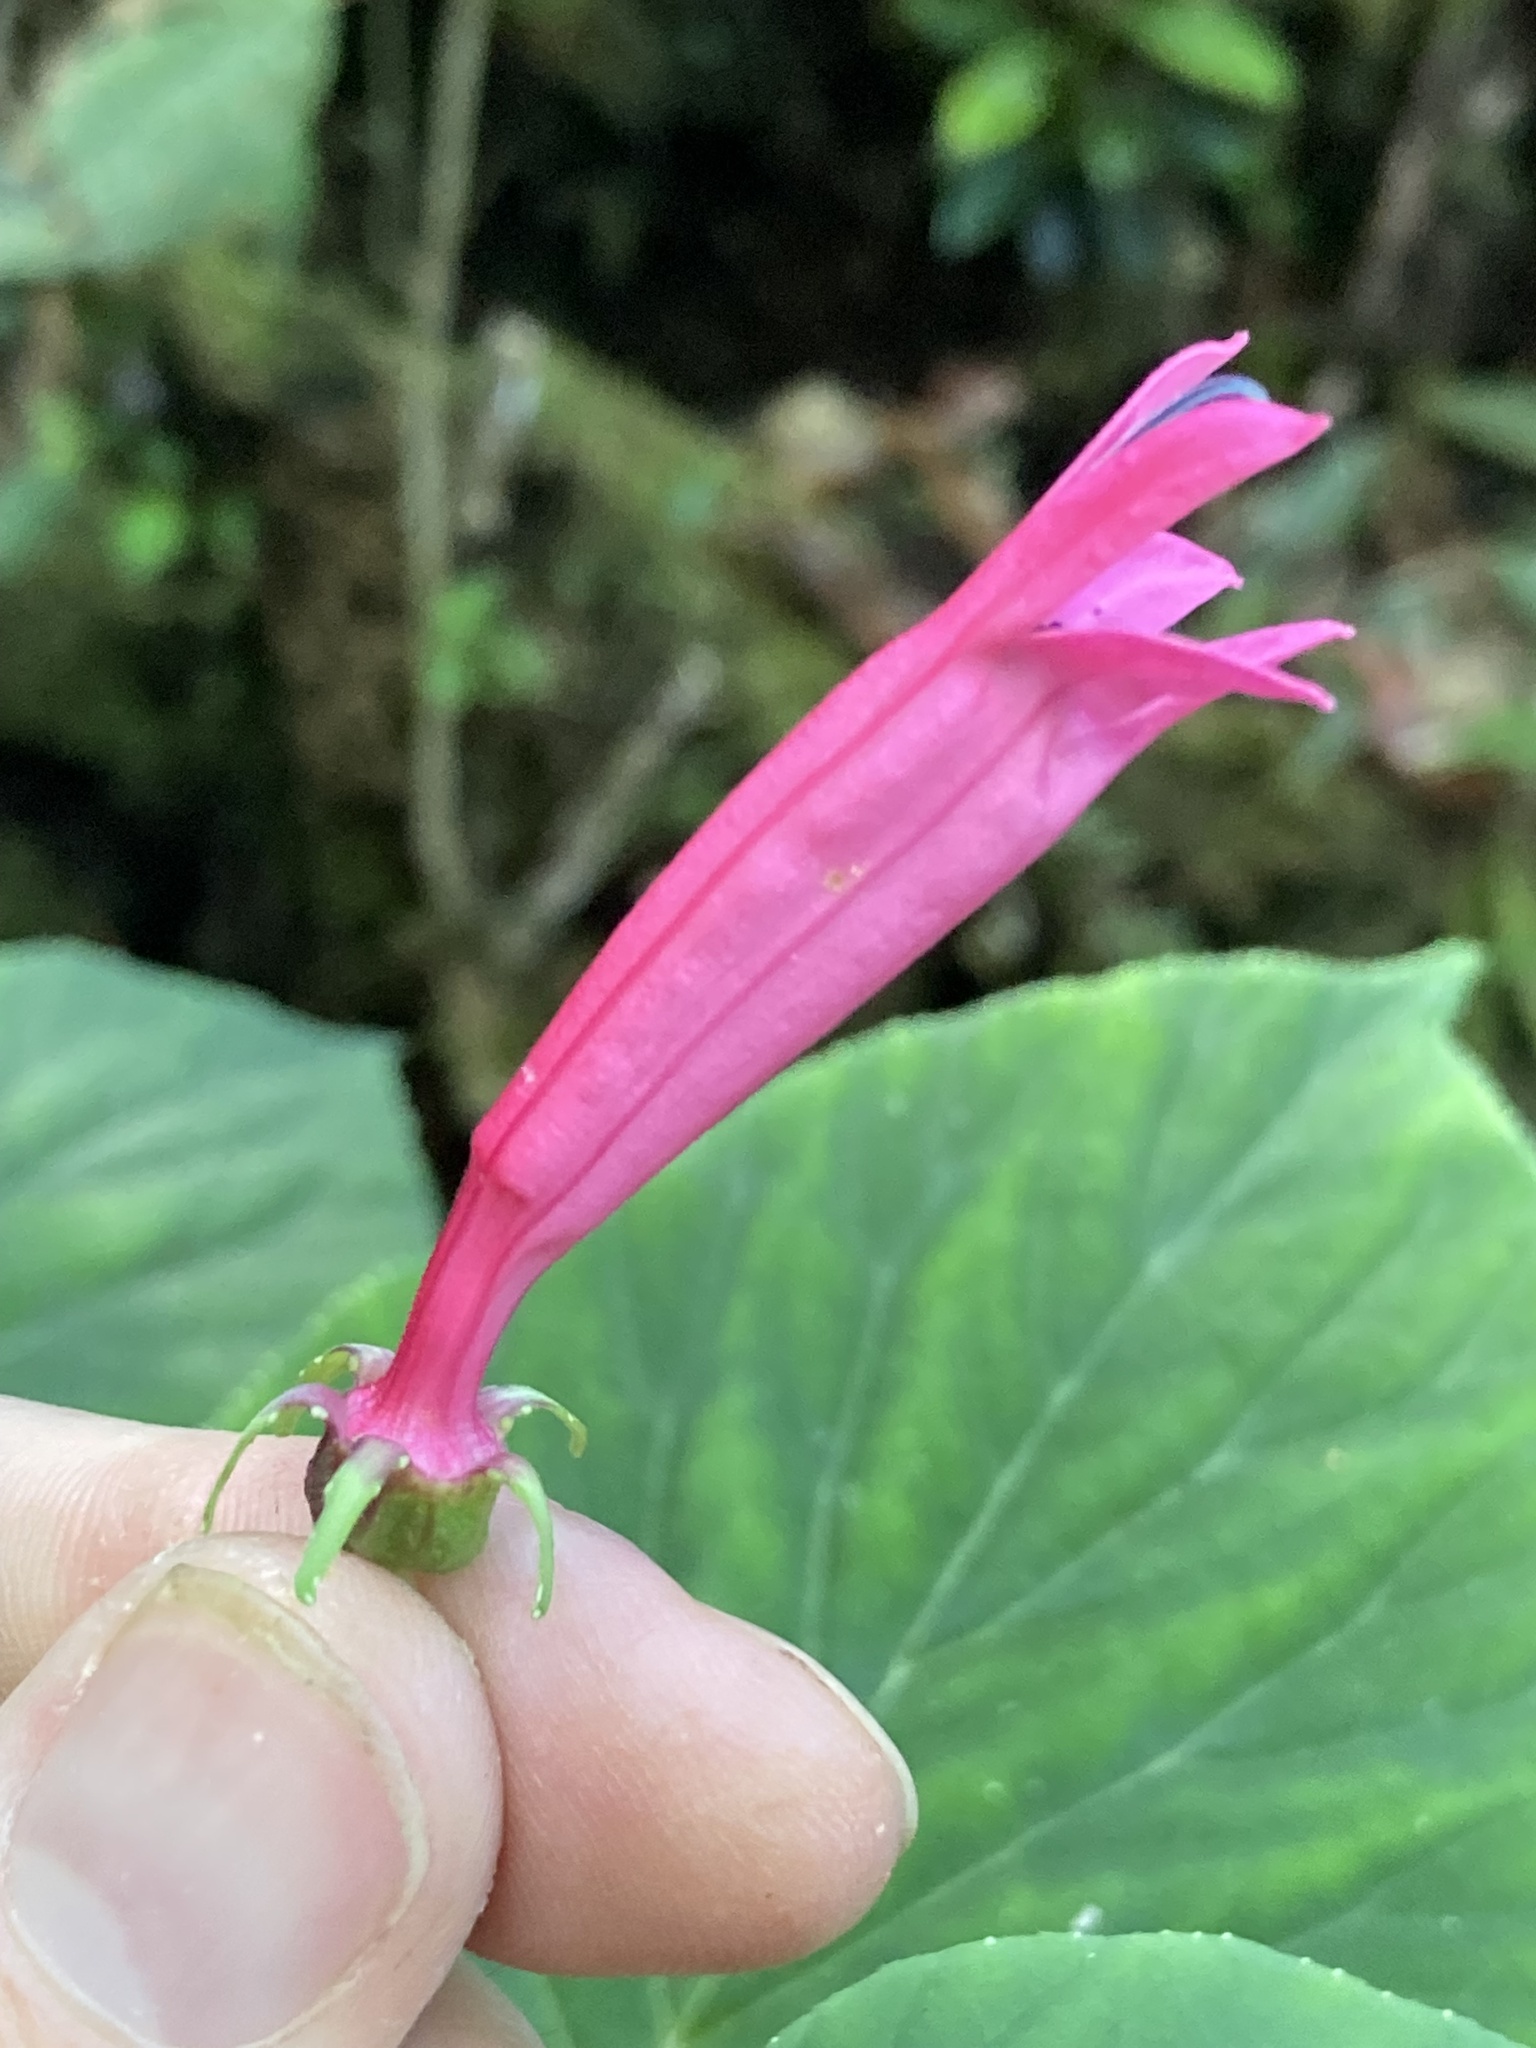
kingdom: Plantae
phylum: Tracheophyta
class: Magnoliopsida
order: Asterales
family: Campanulaceae
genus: Centropogon
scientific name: Centropogon cordifolius
